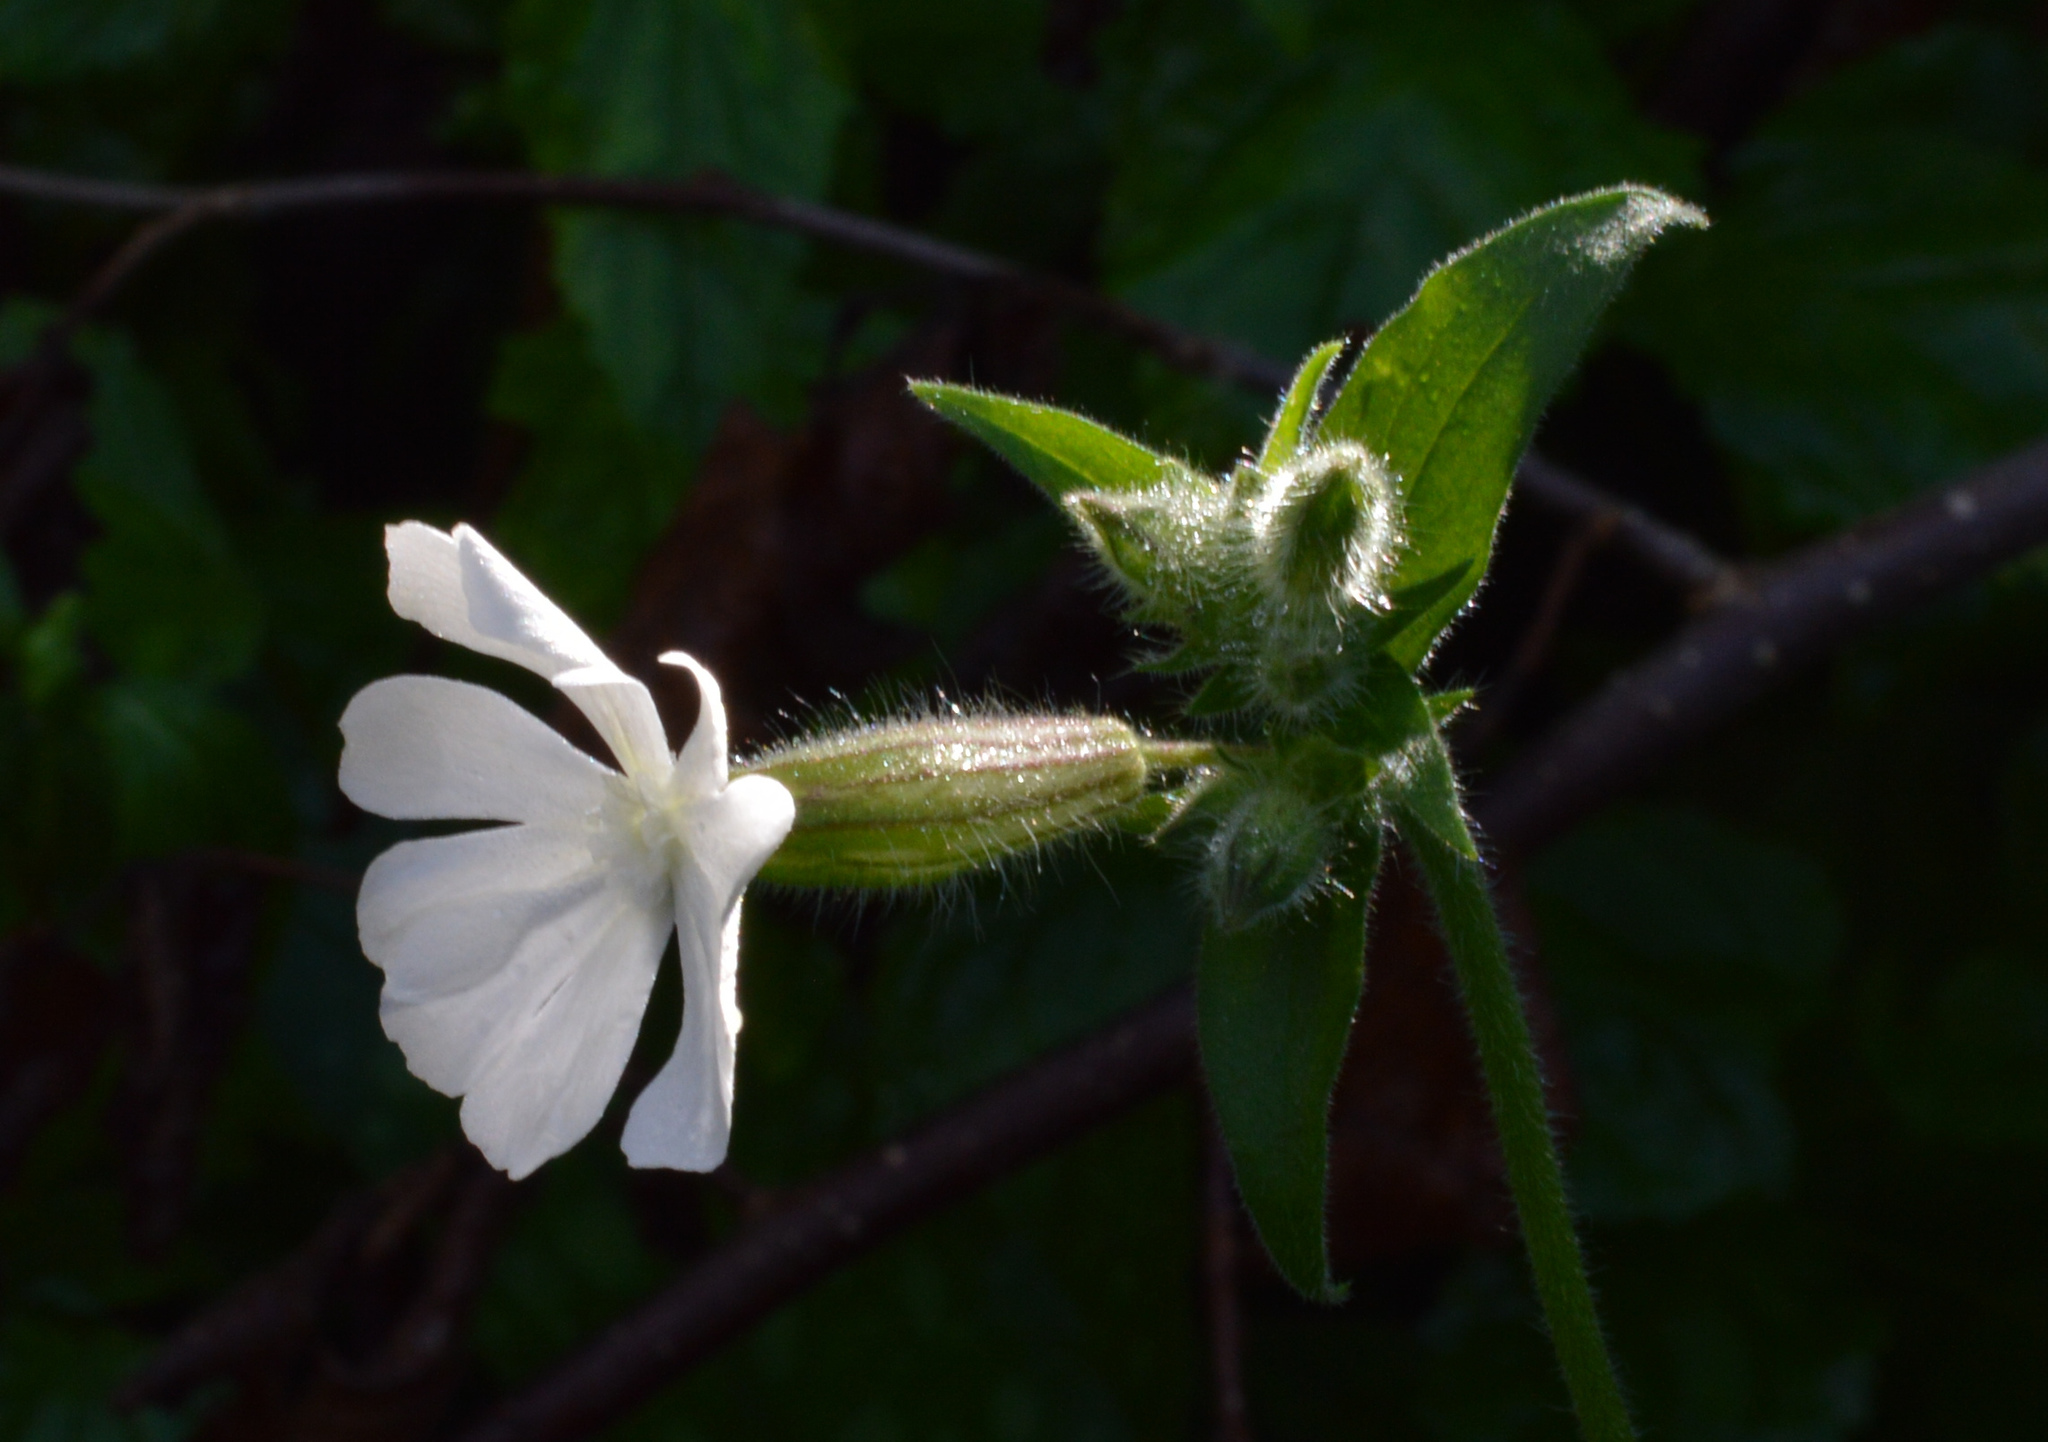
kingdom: Plantae
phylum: Tracheophyta
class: Magnoliopsida
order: Caryophyllales
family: Caryophyllaceae
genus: Silene
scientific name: Silene latifolia
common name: White campion
